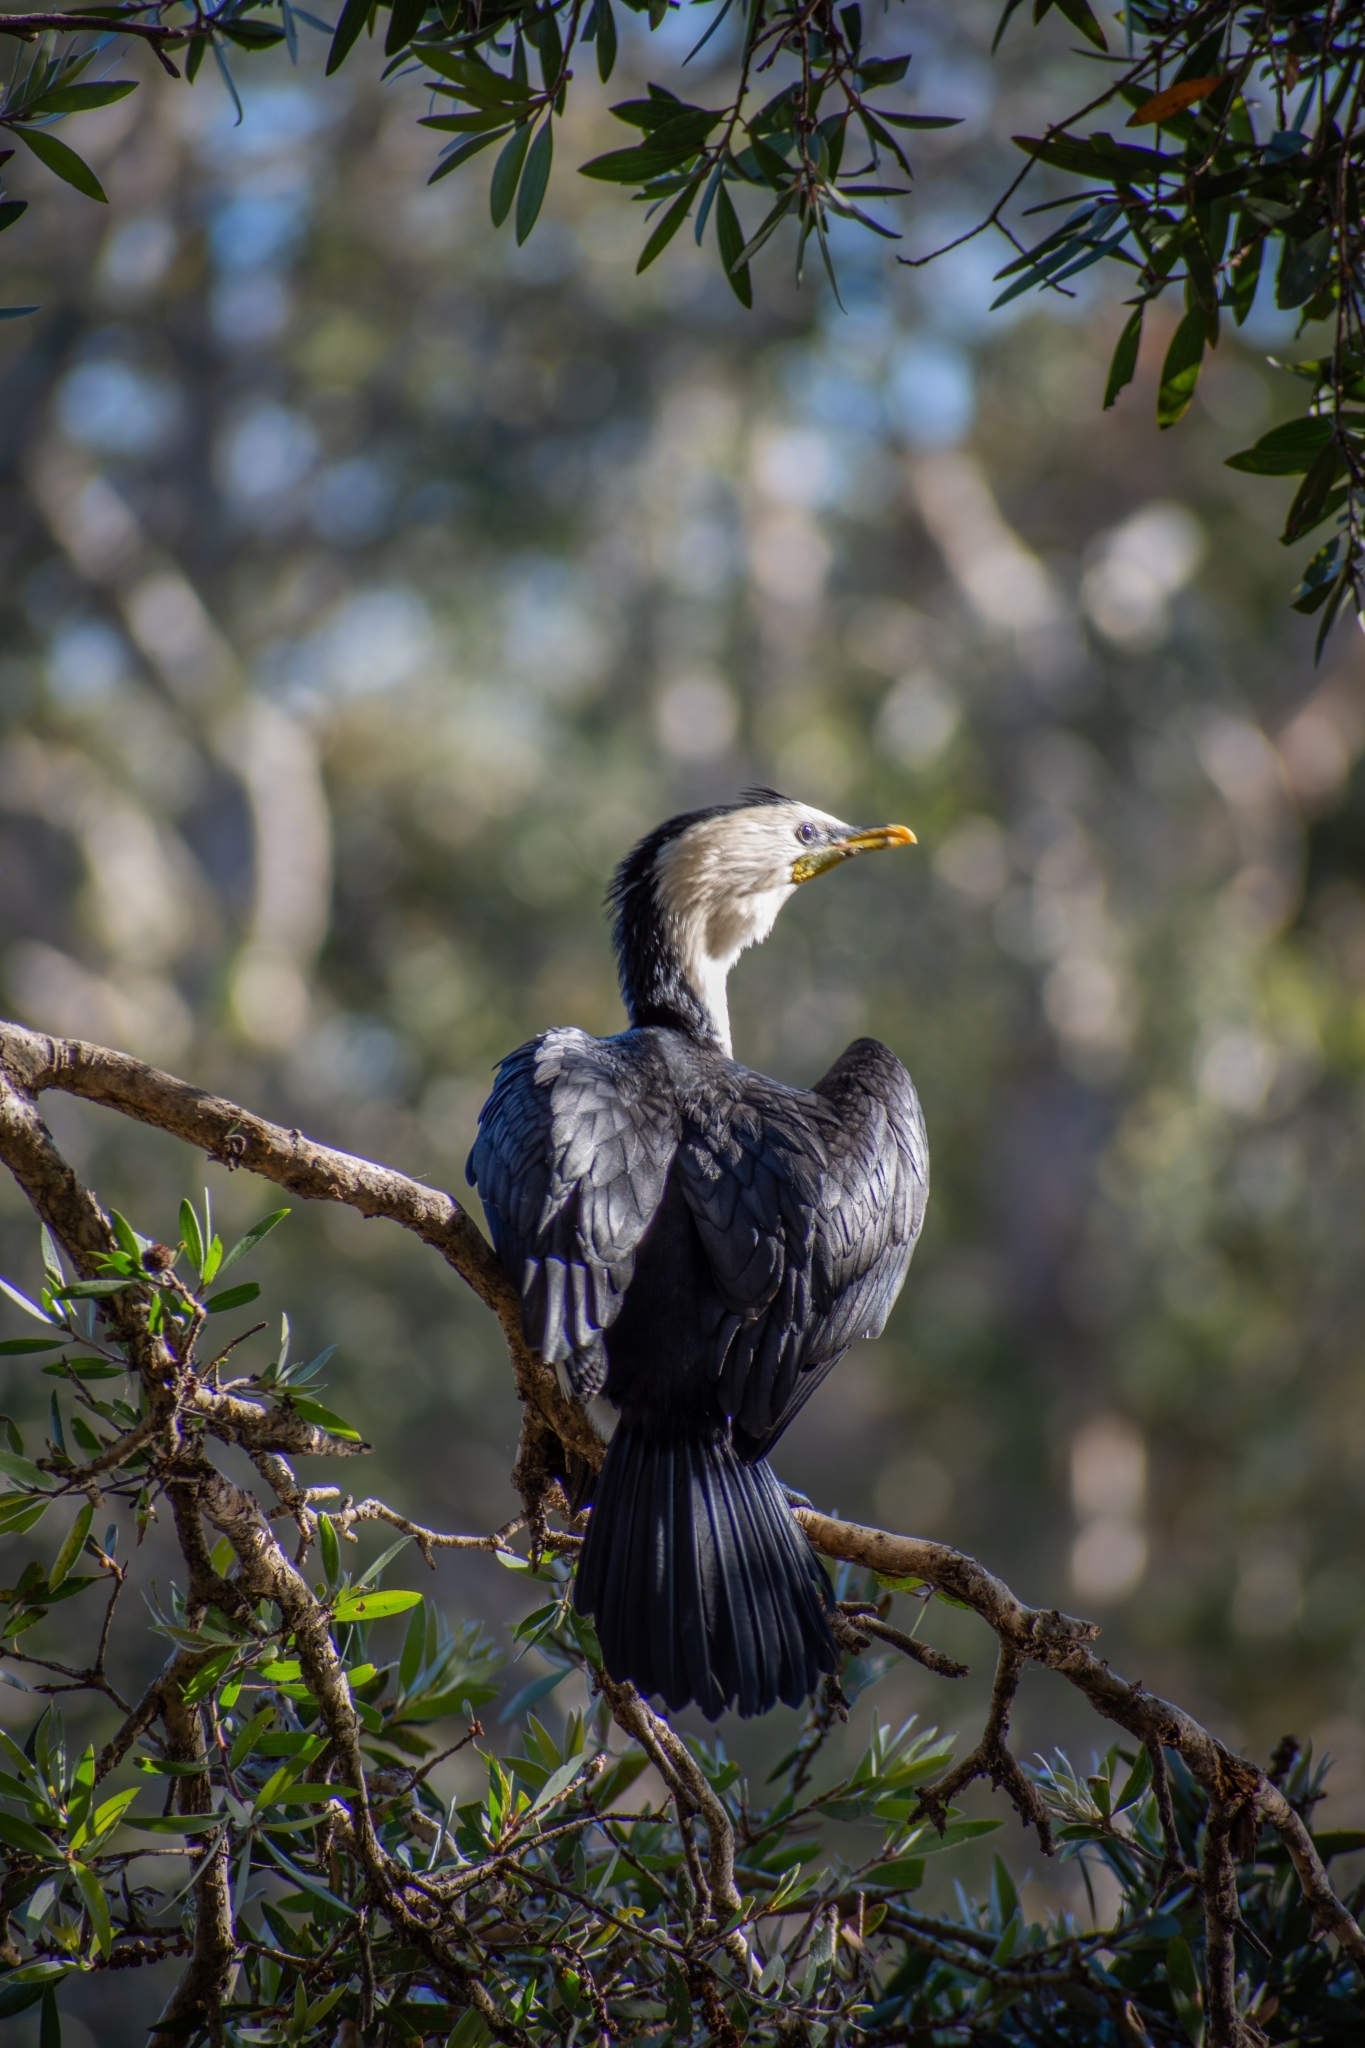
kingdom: Animalia
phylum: Chordata
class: Aves
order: Suliformes
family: Phalacrocoracidae
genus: Microcarbo
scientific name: Microcarbo melanoleucos
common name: Little pied cormorant
